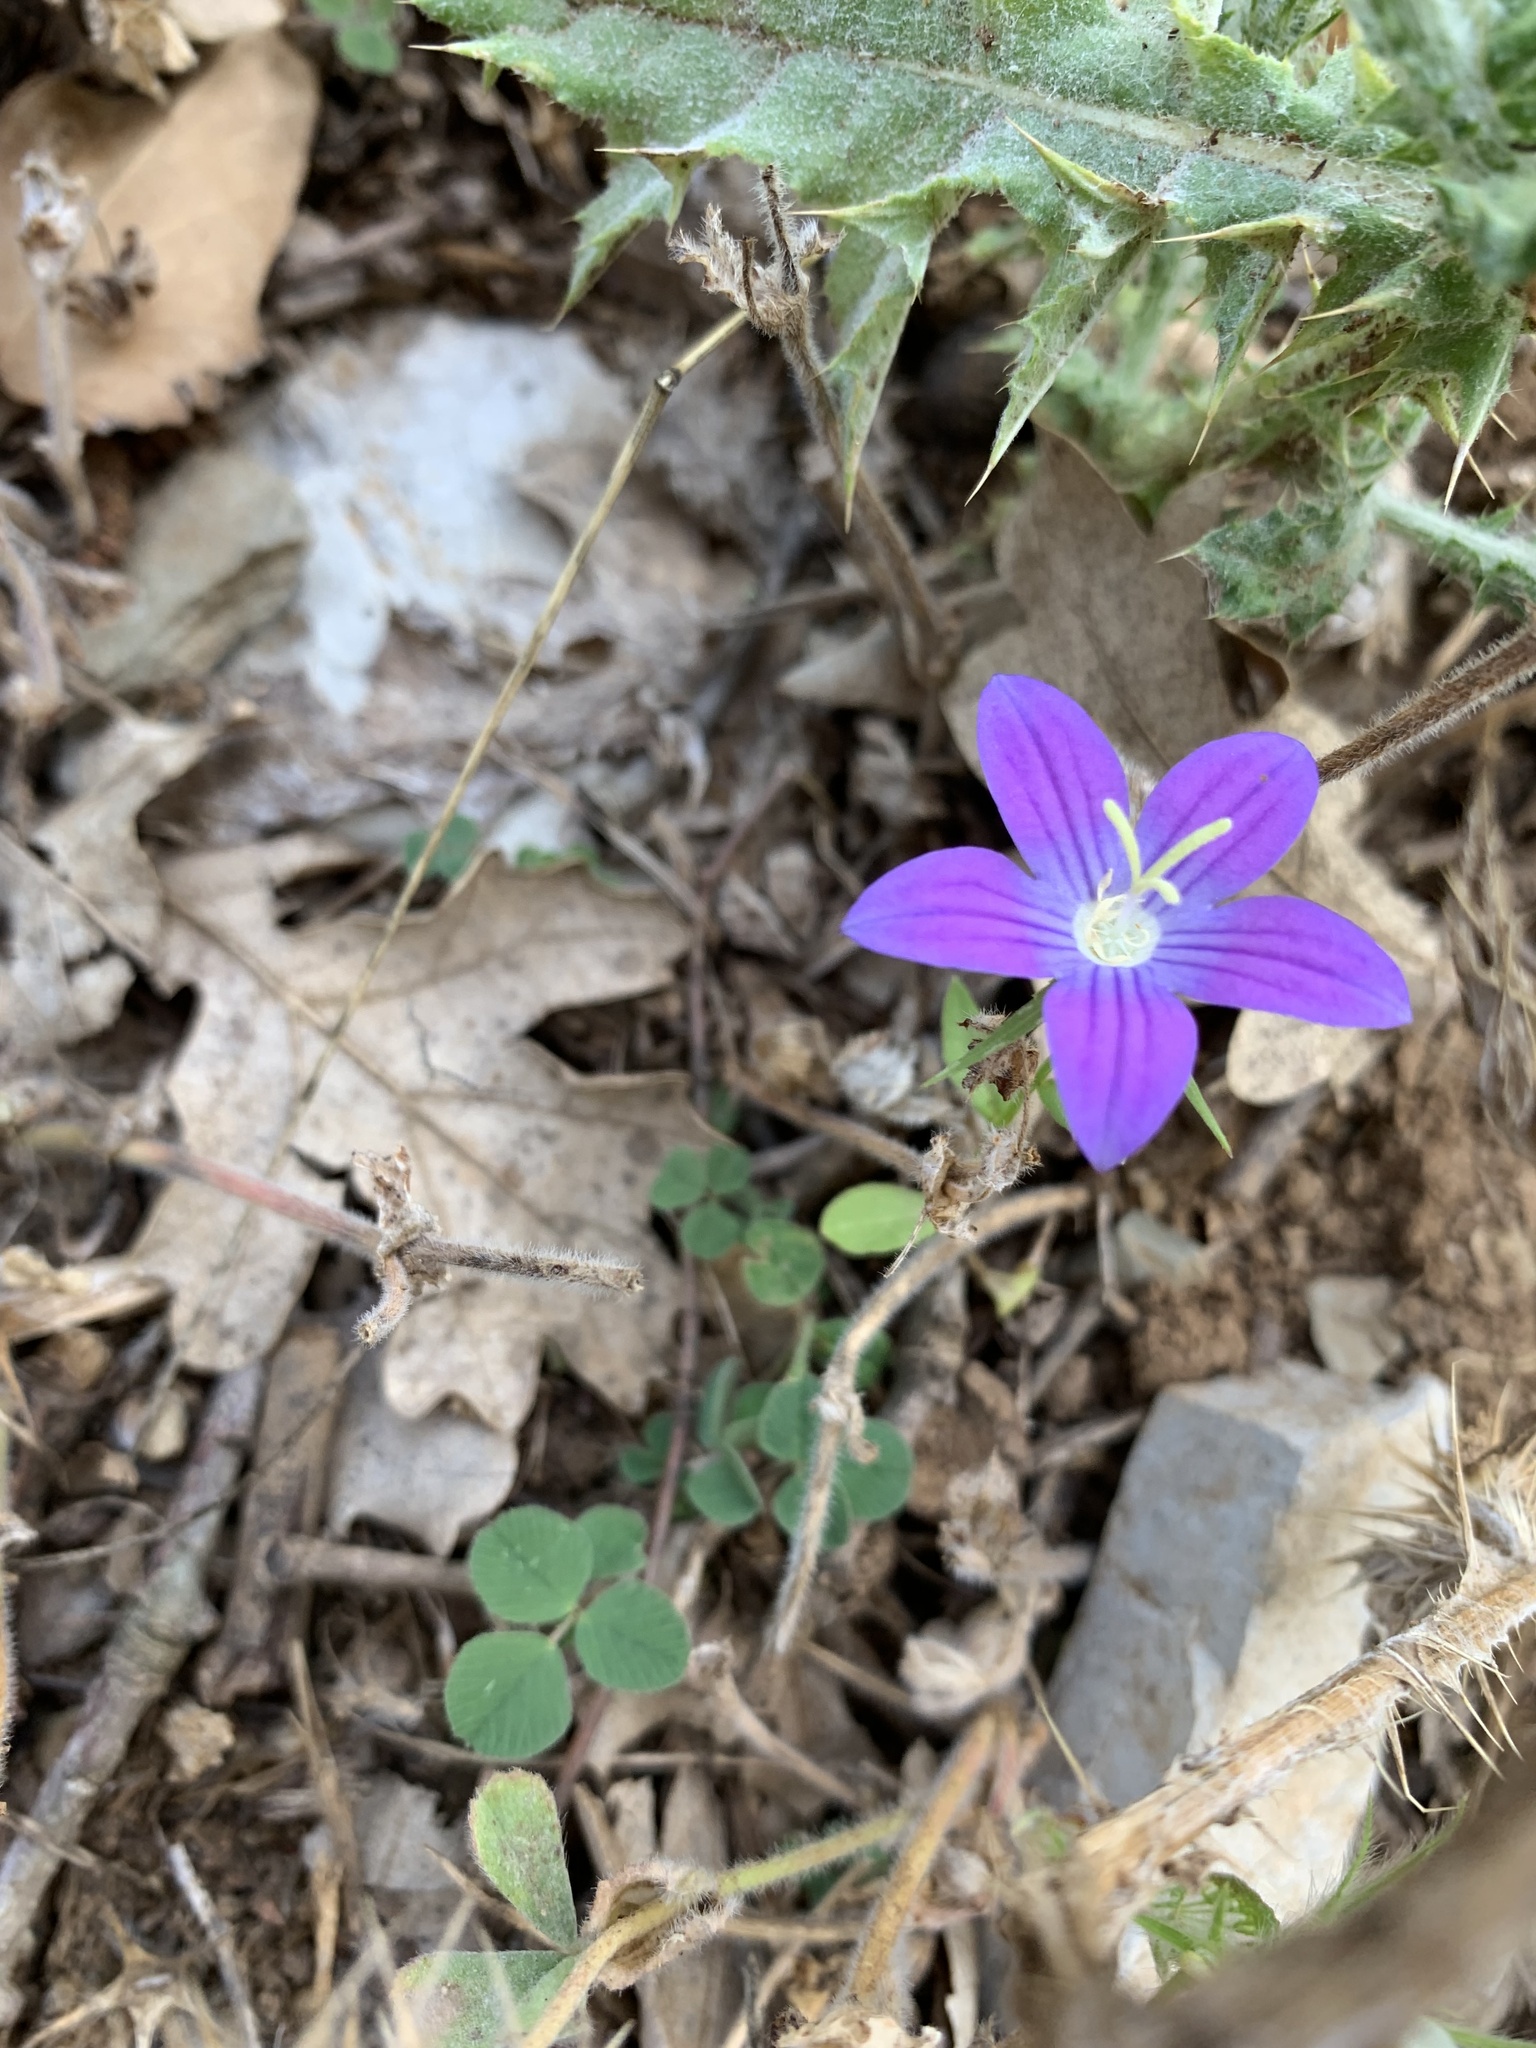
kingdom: Plantae
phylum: Tracheophyta
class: Magnoliopsida
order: Asterales
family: Campanulaceae
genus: Campanula
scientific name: Campanula patula
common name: Spreading bellflower
